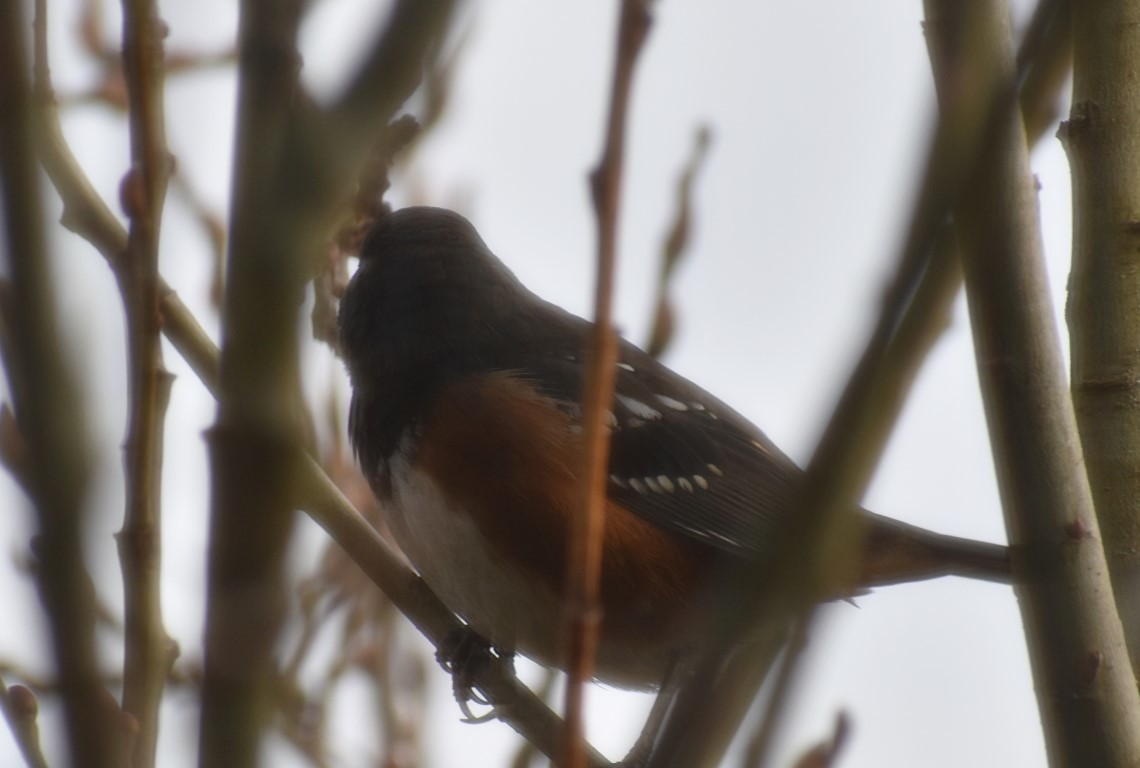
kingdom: Animalia
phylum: Chordata
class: Aves
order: Passeriformes
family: Passerellidae
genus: Pipilo
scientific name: Pipilo maculatus
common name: Spotted towhee
